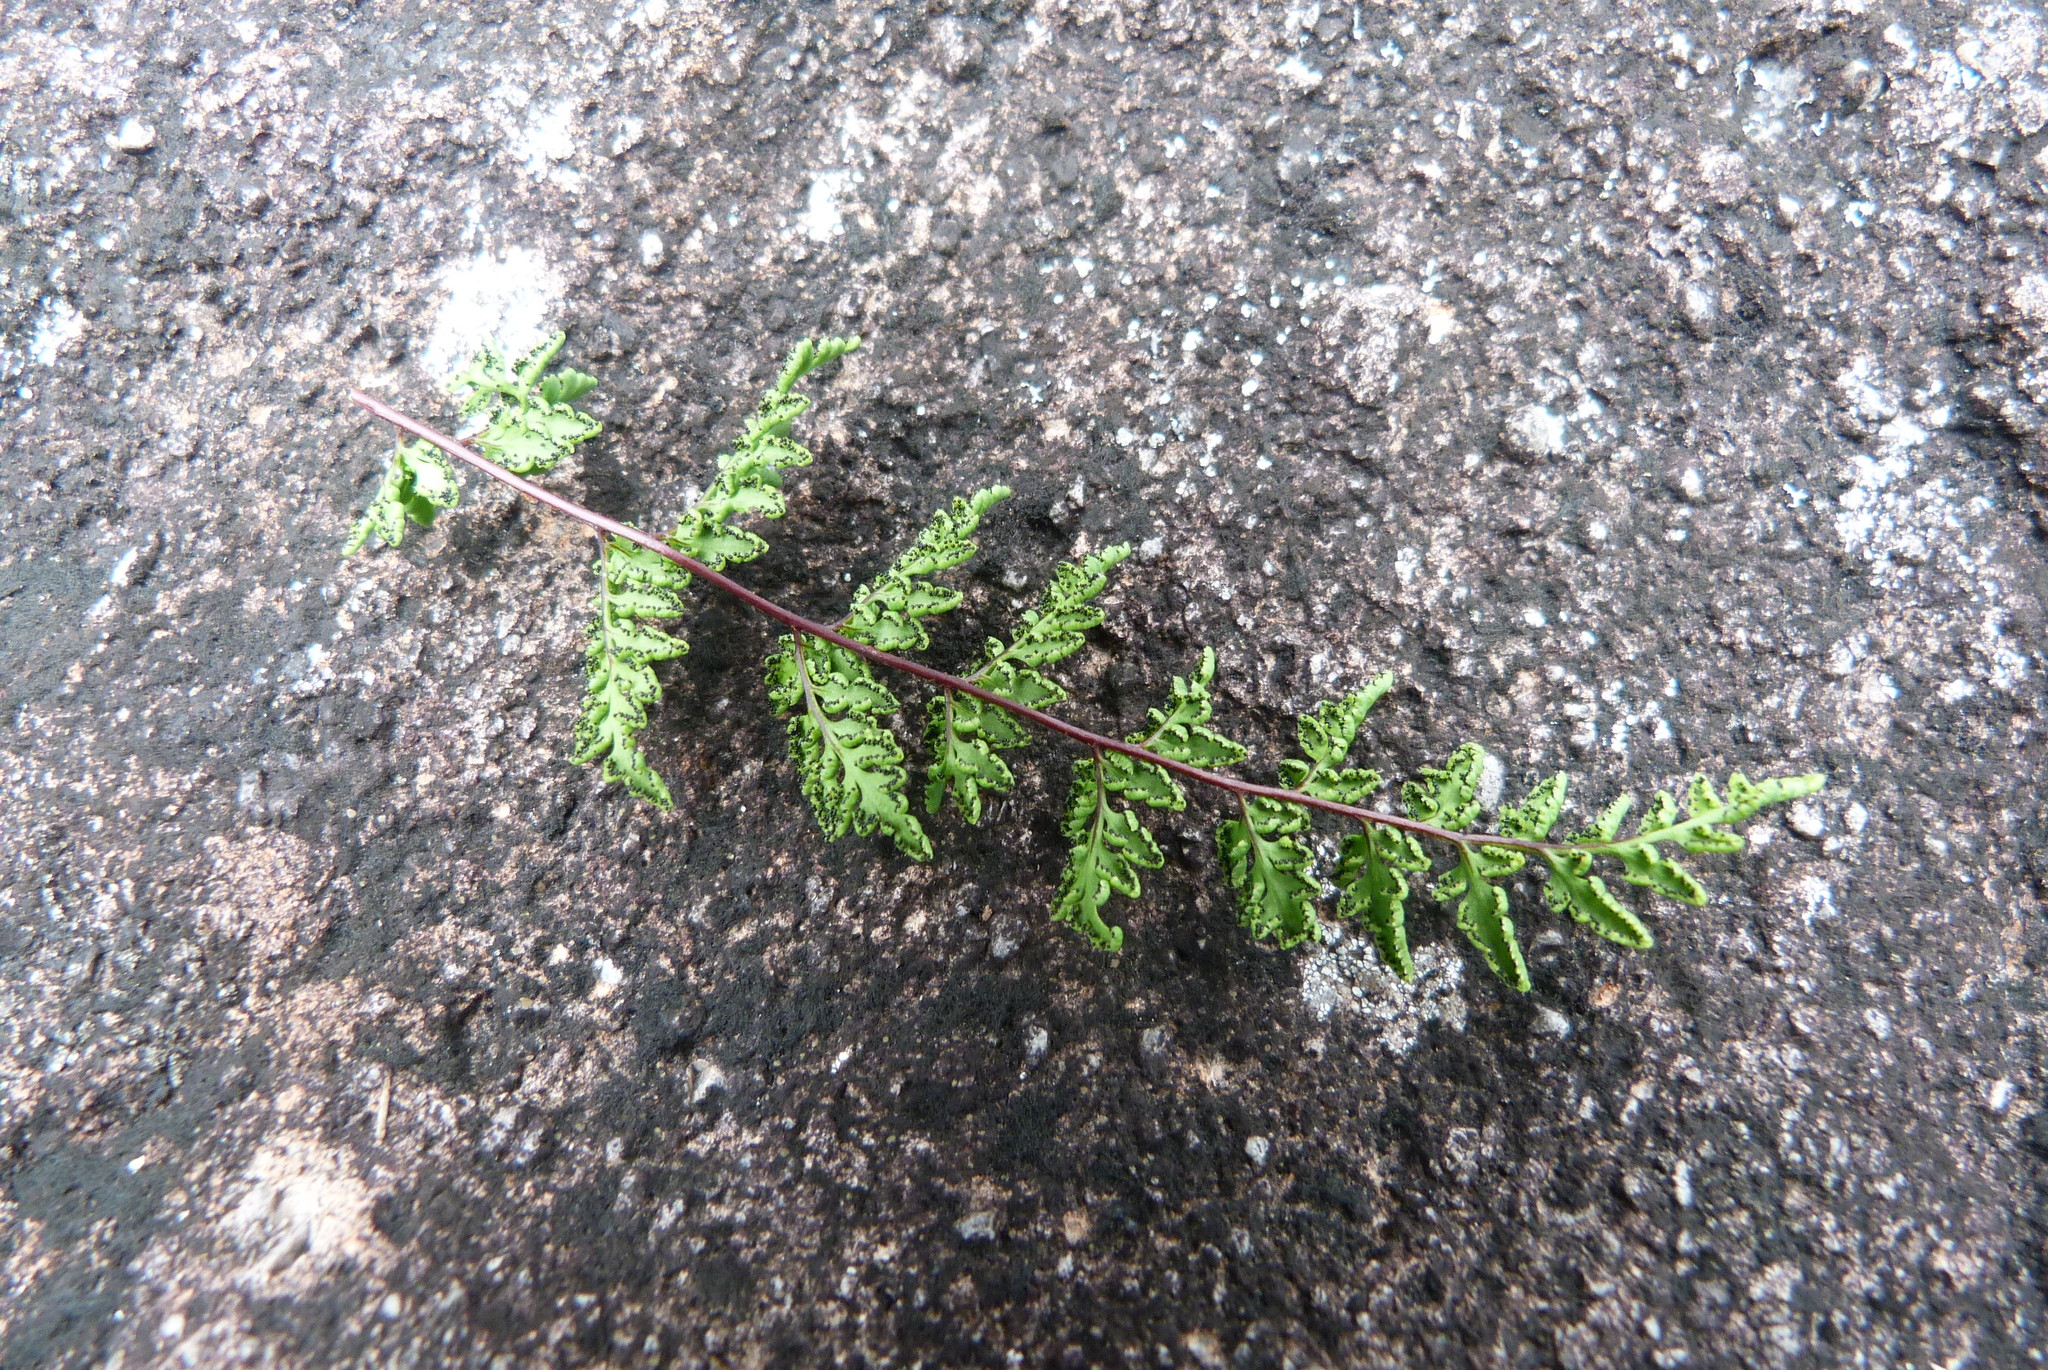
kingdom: Plantae
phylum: Tracheophyta
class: Polypodiopsida
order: Polypodiales
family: Pteridaceae
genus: Cheilanthes
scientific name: Cheilanthes sieberi
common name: Mulga fern
